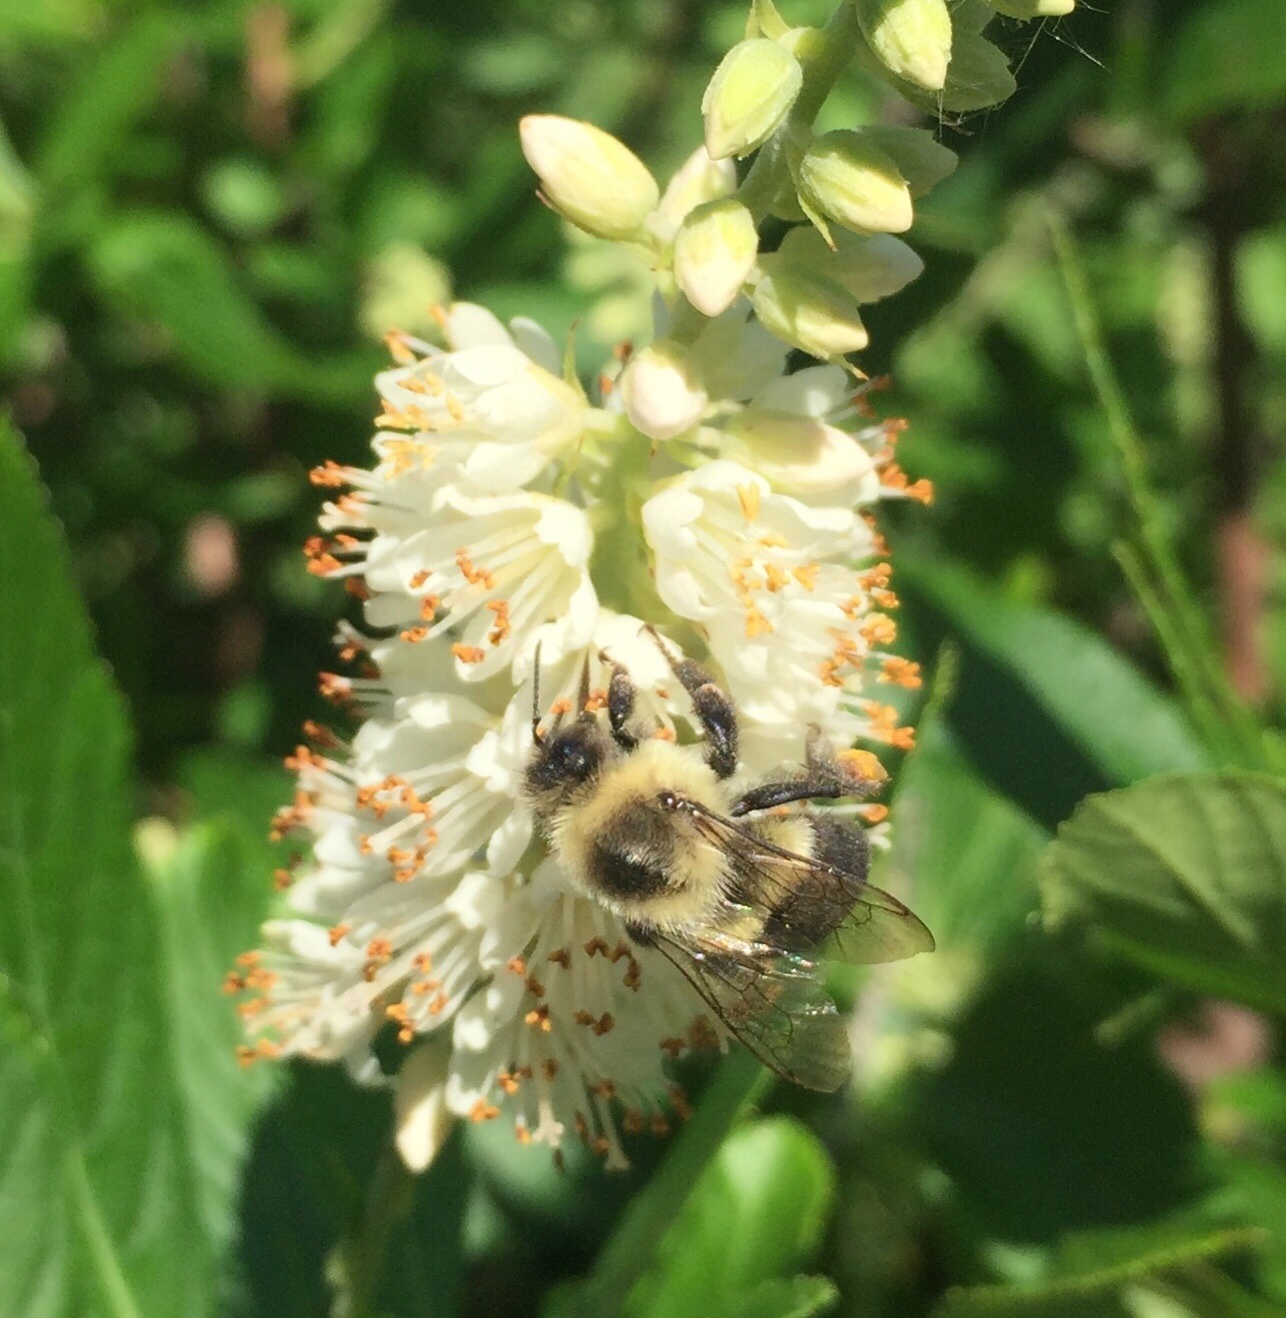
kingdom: Animalia
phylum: Arthropoda
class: Insecta
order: Hymenoptera
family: Apidae
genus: Bombus
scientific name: Bombus impatiens
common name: Common eastern bumble bee
